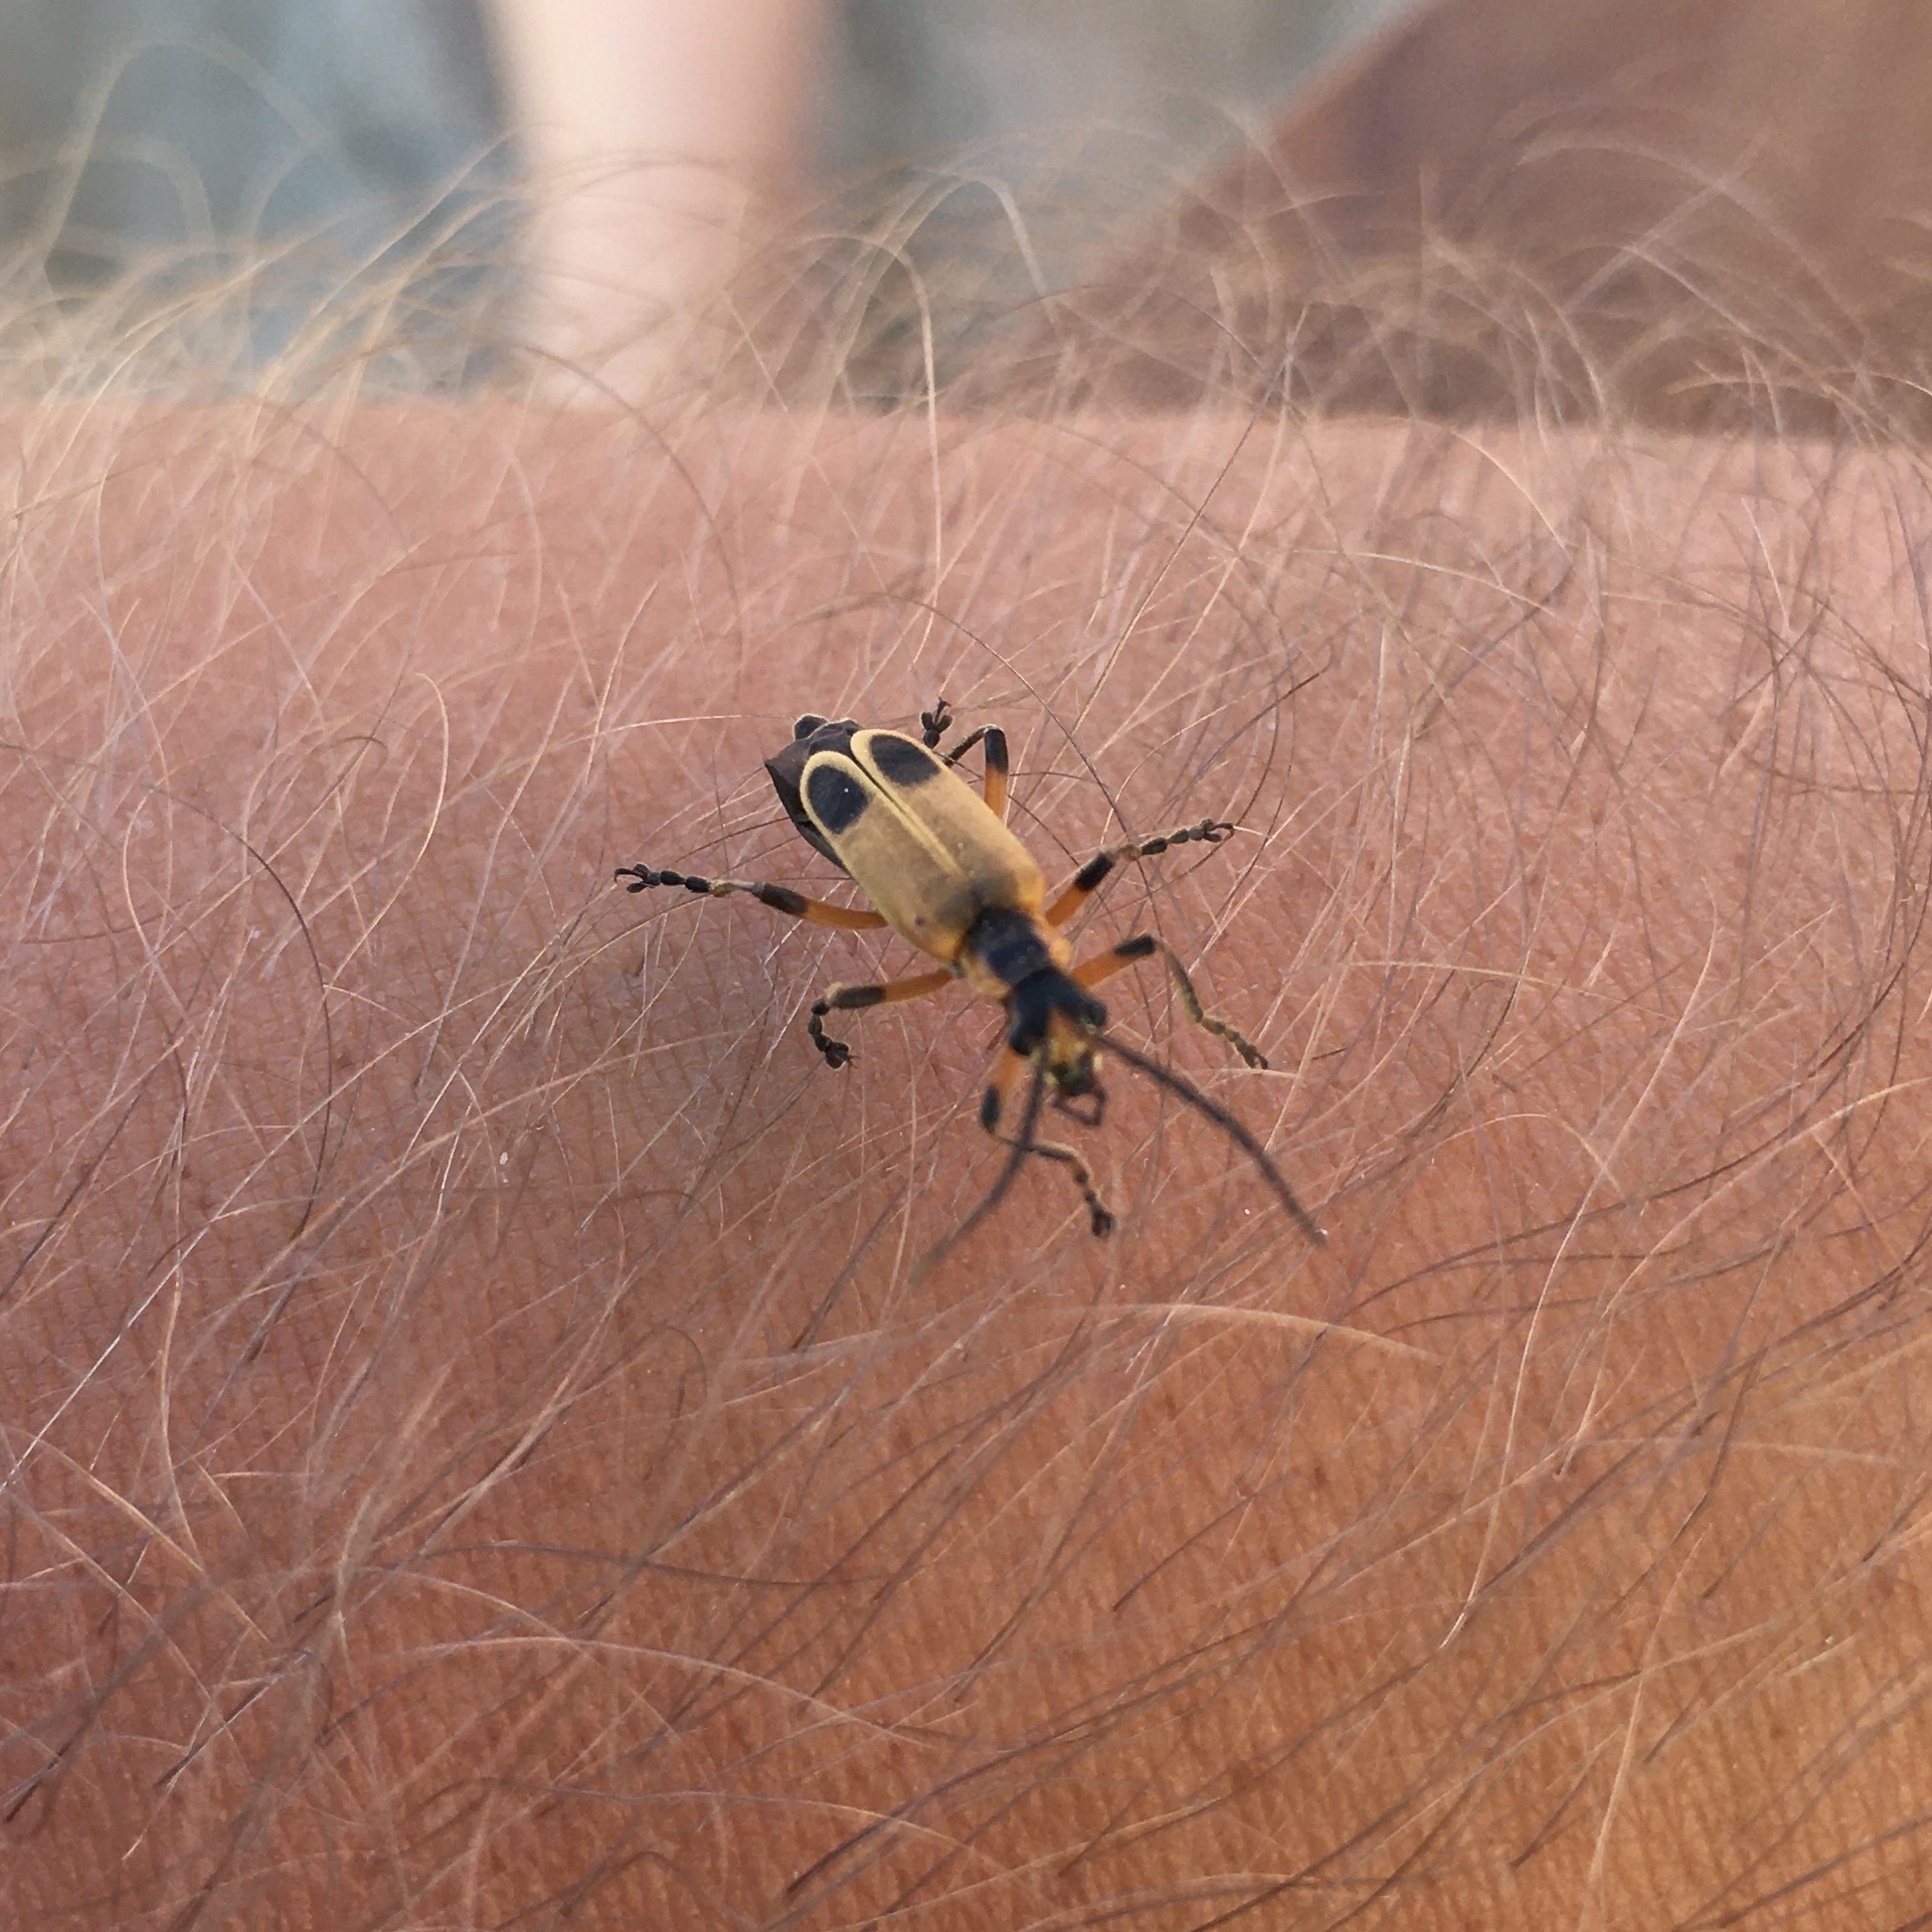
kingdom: Animalia
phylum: Arthropoda
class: Insecta
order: Coleoptera
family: Cantharidae
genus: Chauliognathus
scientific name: Chauliognathus marginatus
